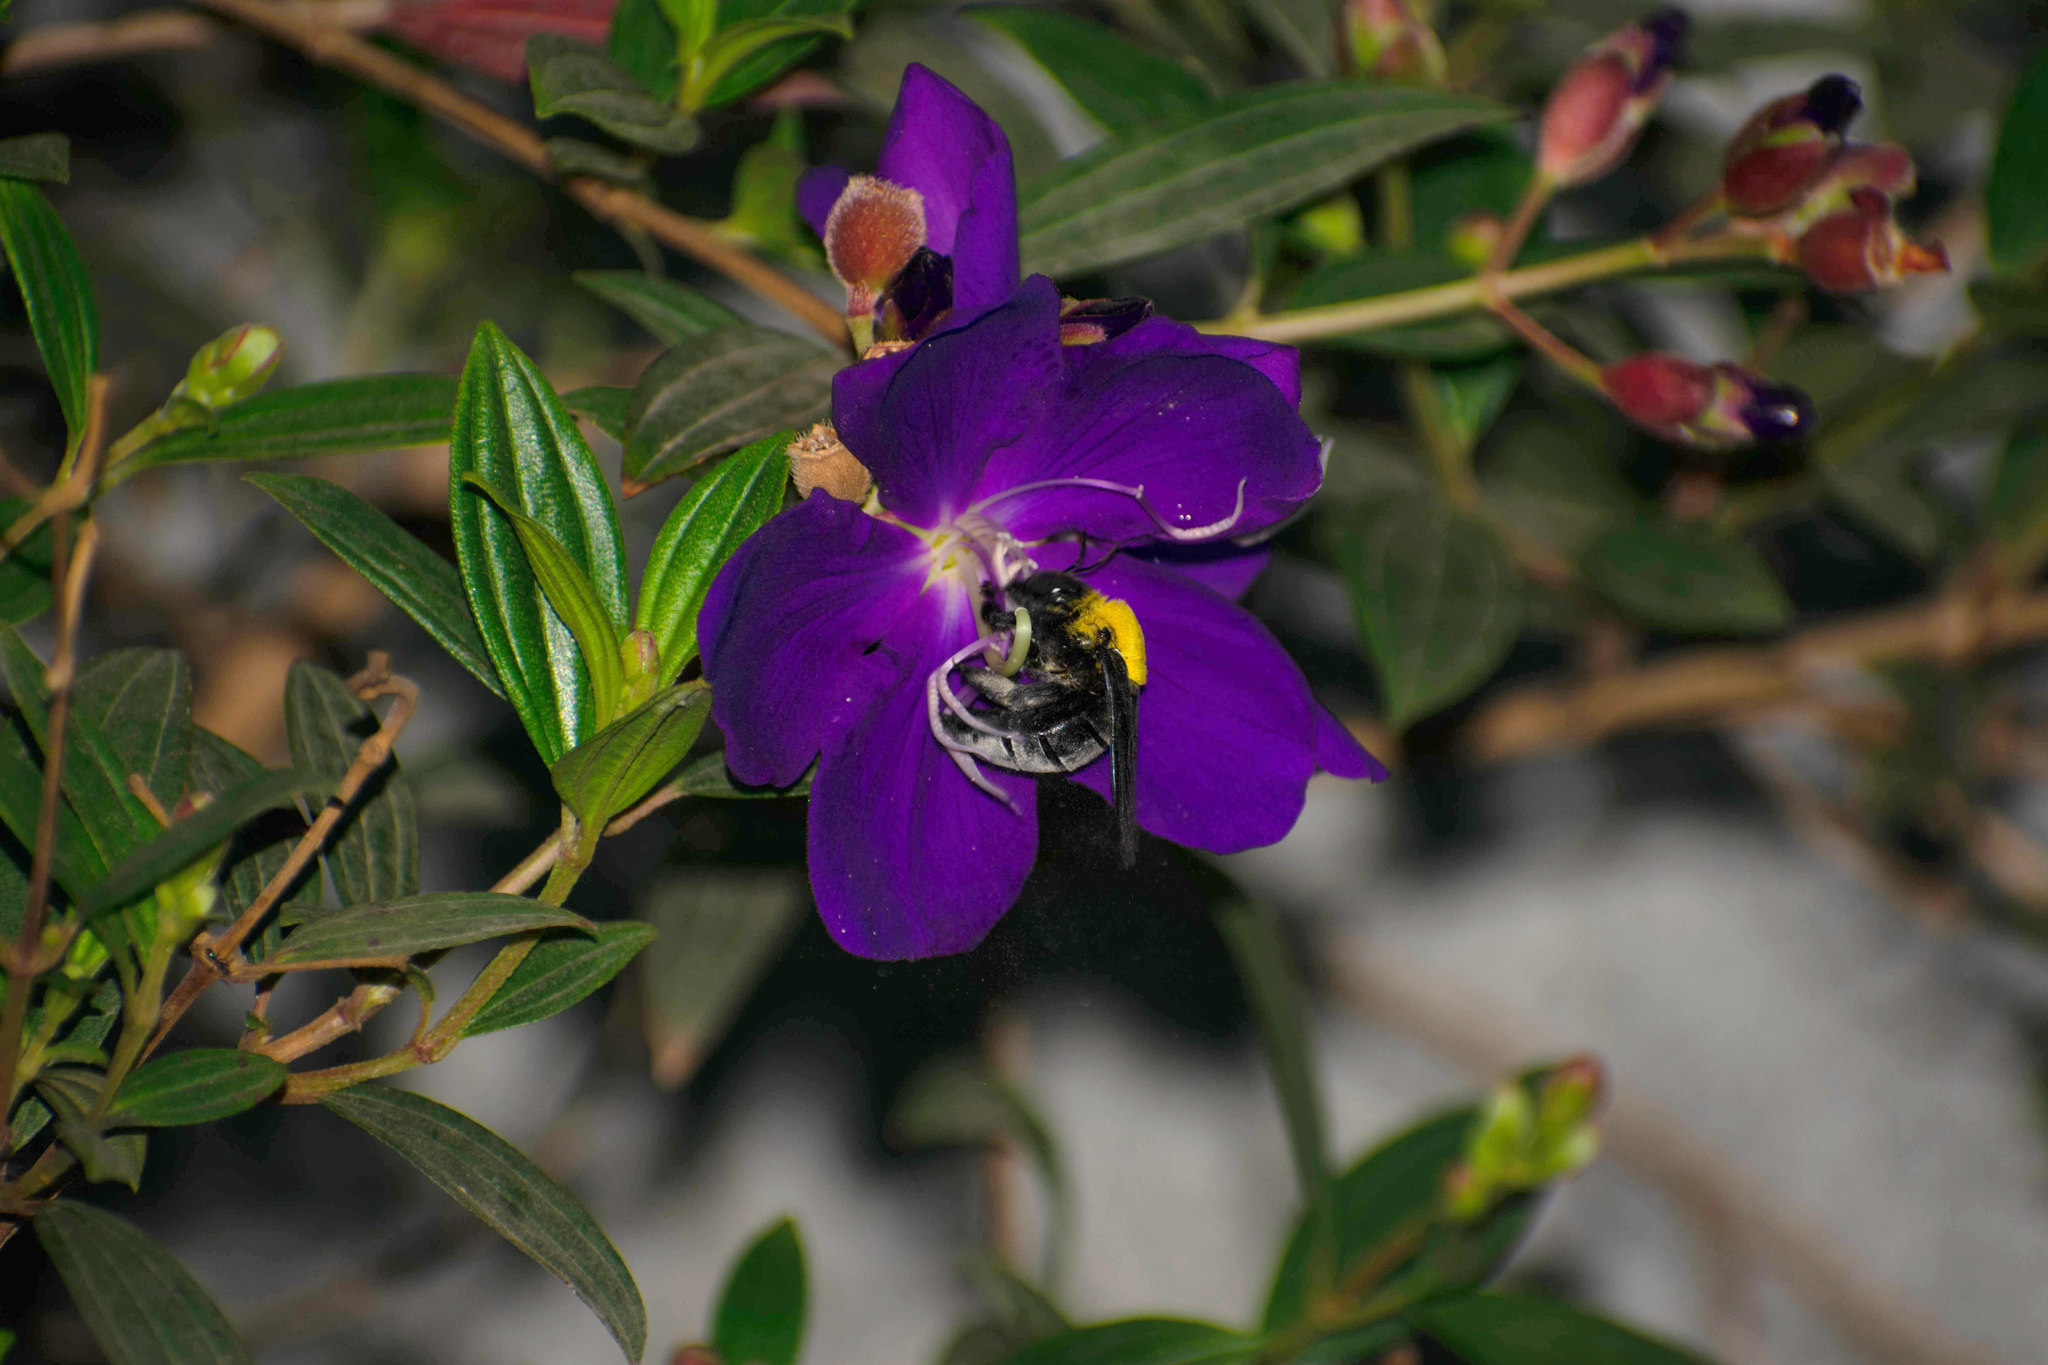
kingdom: Animalia
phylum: Arthropoda
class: Insecta
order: Hymenoptera
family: Apidae
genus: Xylocopa
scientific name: Xylocopa ruficornis
